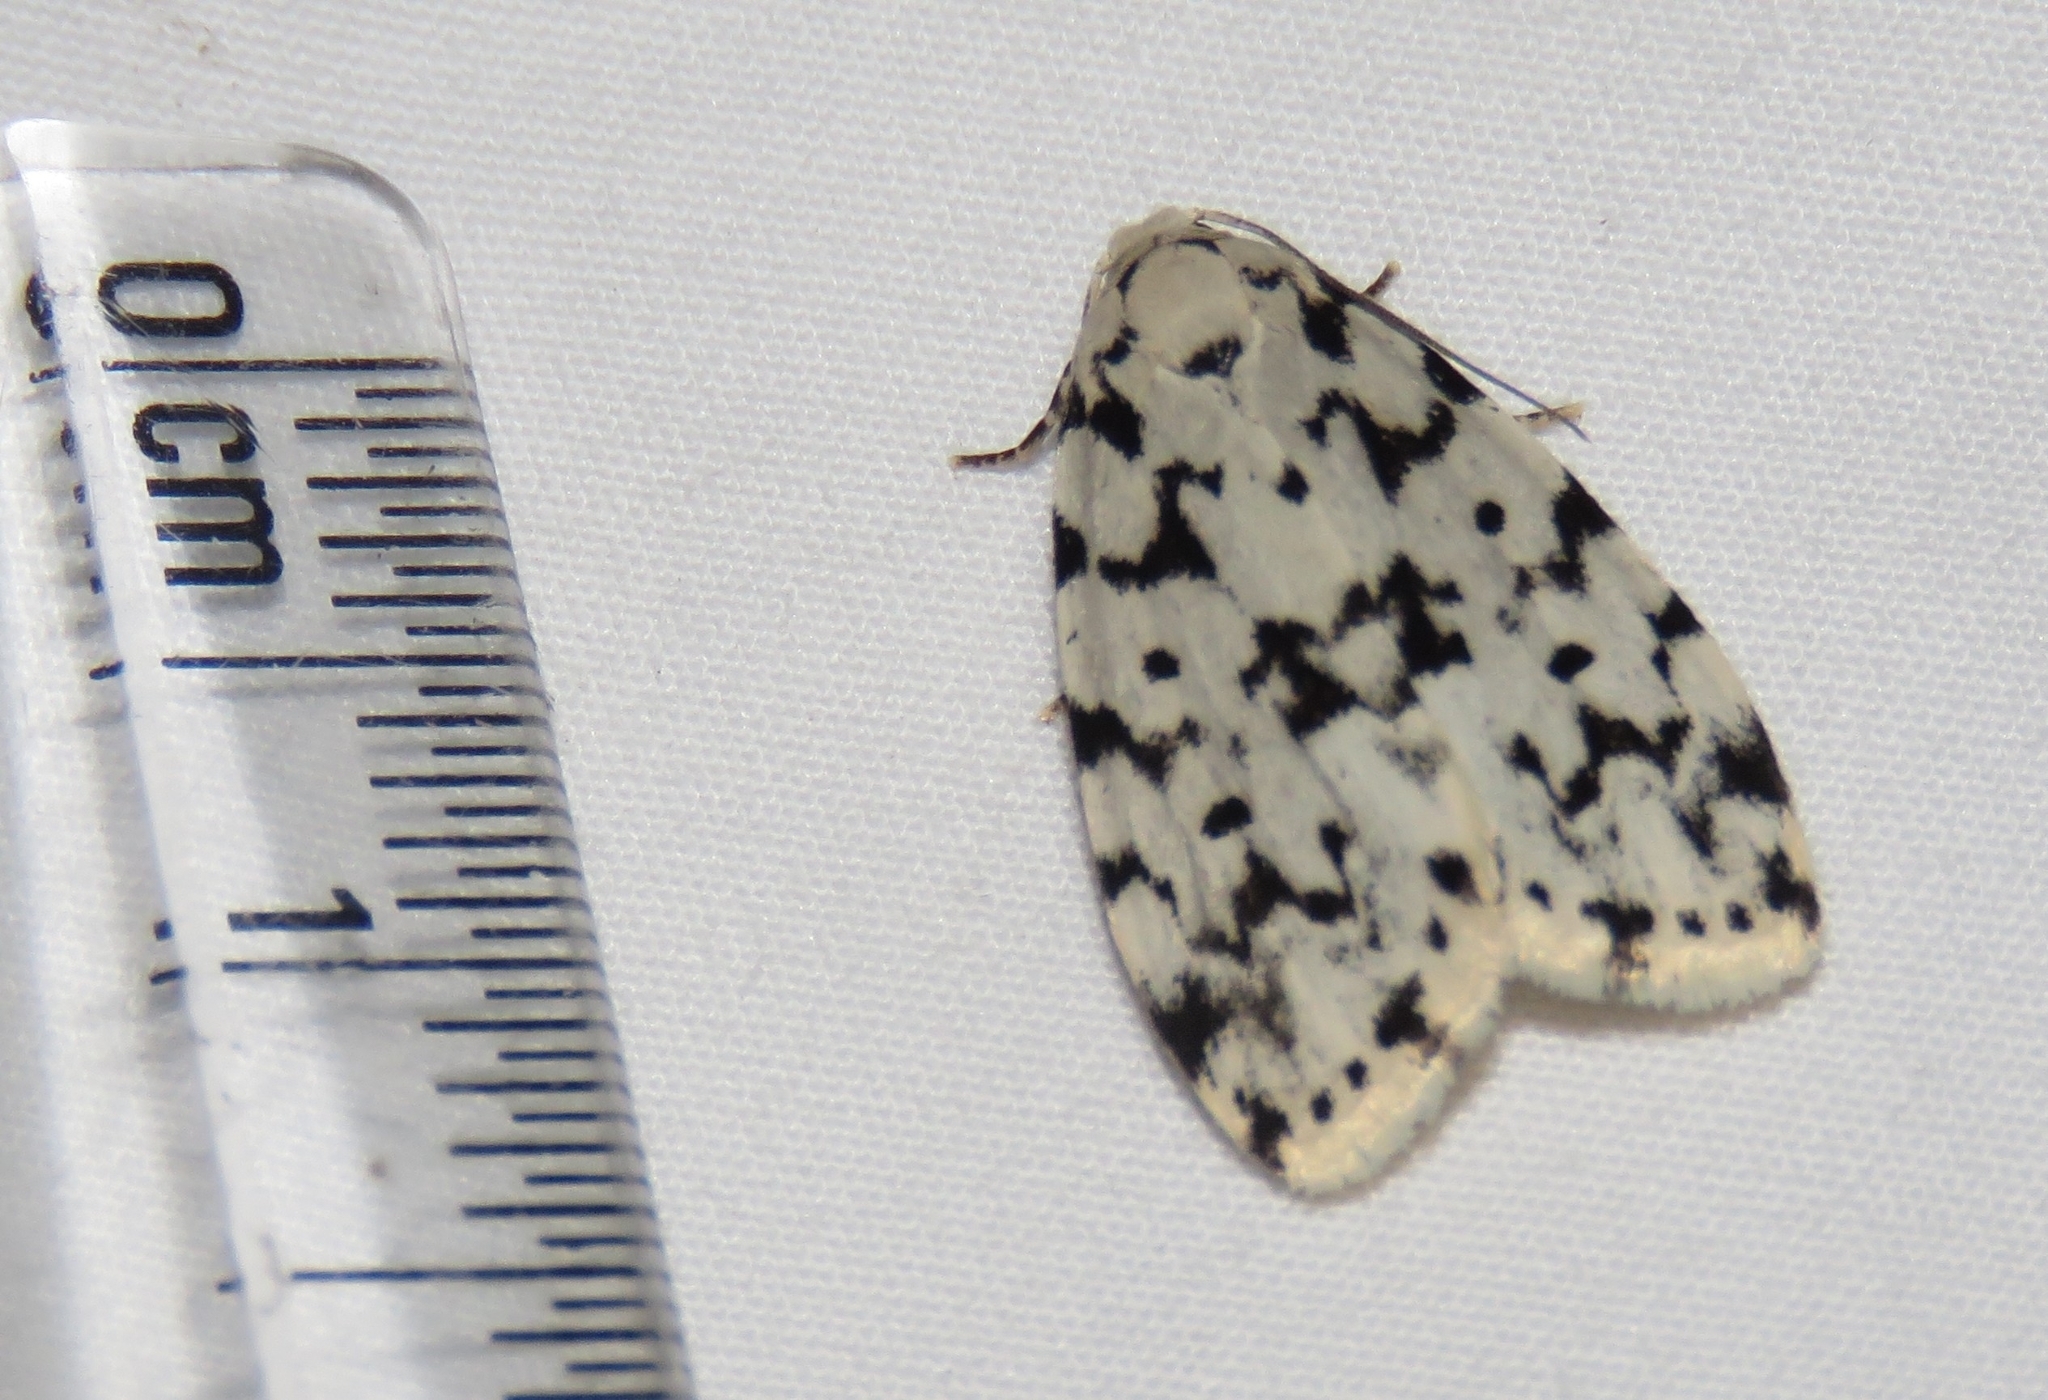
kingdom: Animalia
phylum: Arthropoda
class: Insecta
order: Lepidoptera
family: Erebidae
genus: Siccia
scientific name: Siccia taprobanis
